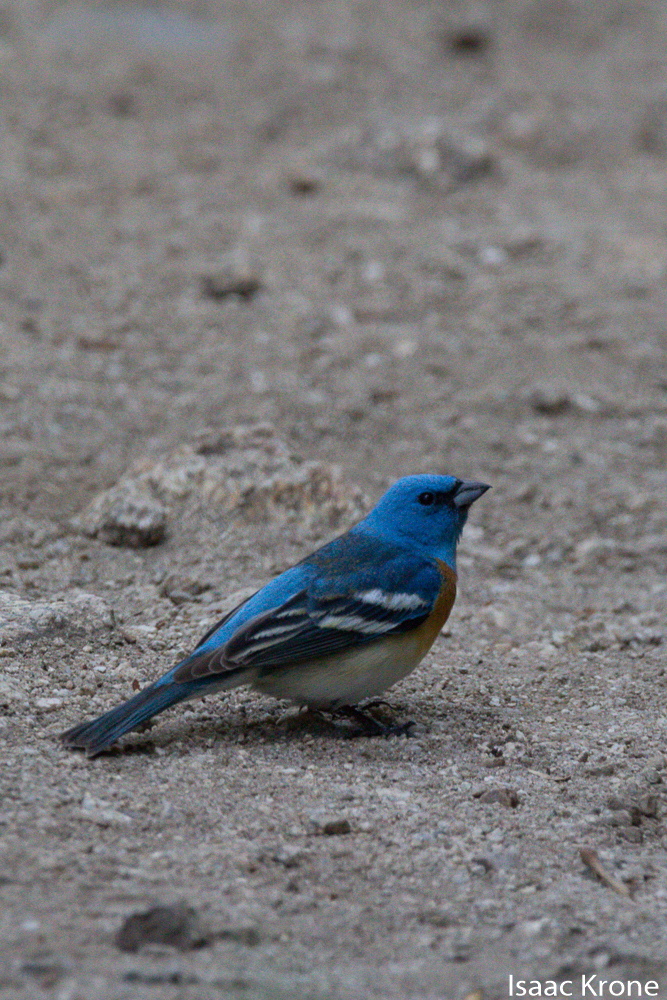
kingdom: Animalia
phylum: Chordata
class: Aves
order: Passeriformes
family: Cardinalidae
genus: Passerina
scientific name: Passerina amoena
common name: Lazuli bunting
